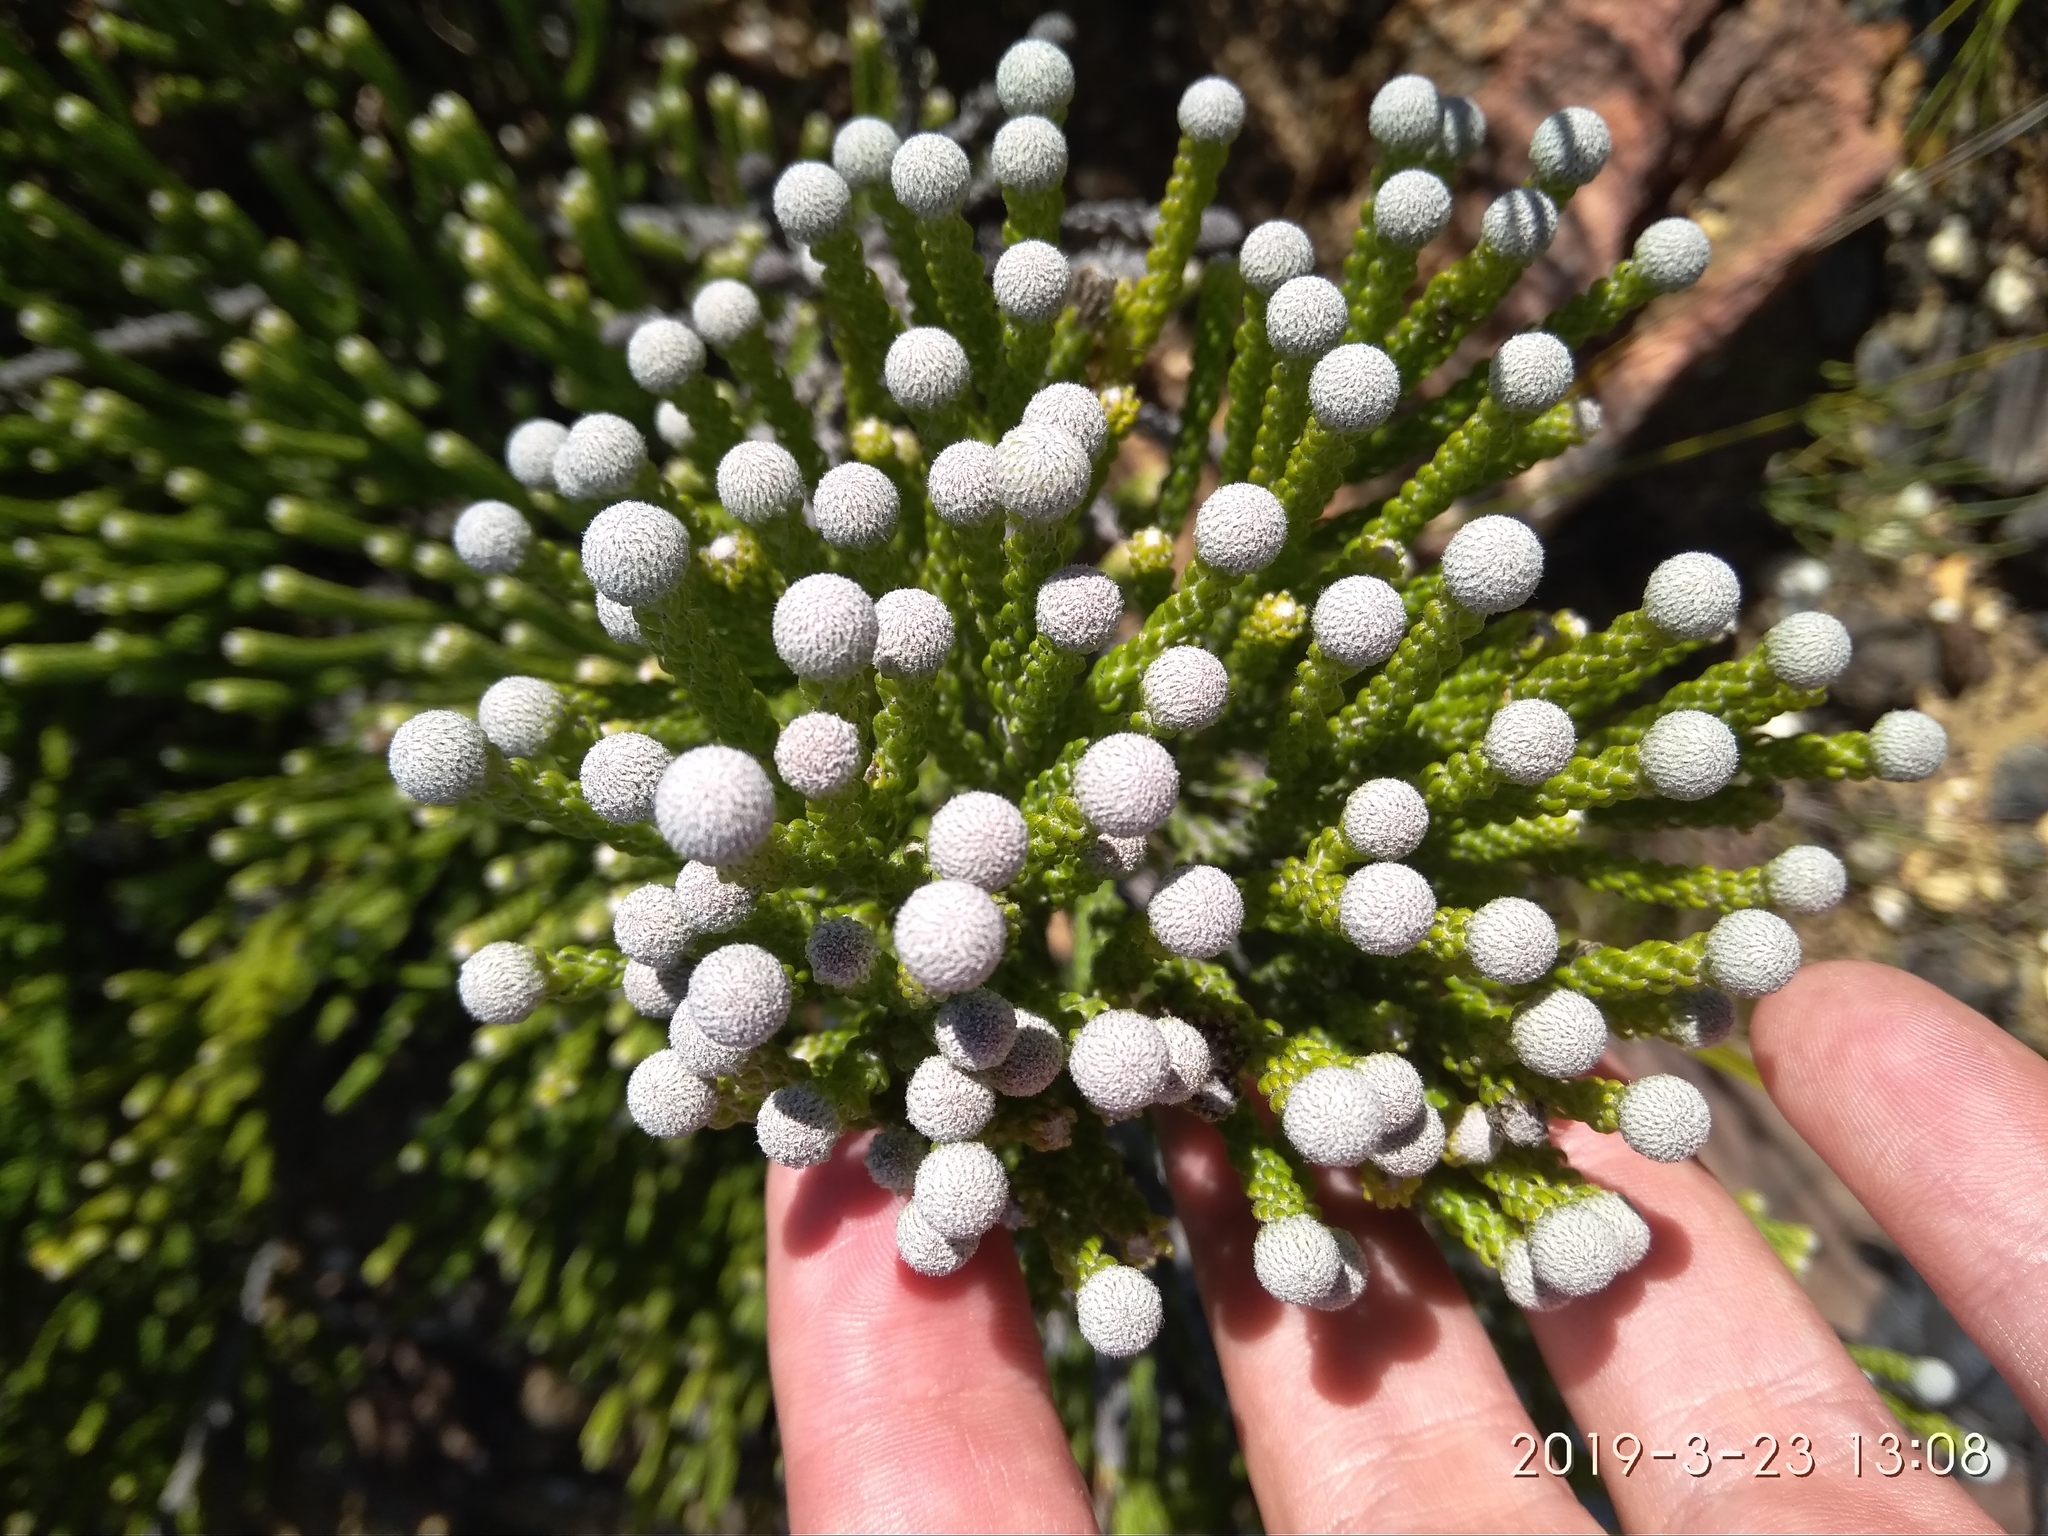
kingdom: Plantae
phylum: Tracheophyta
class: Magnoliopsida
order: Bruniales
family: Bruniaceae
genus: Brunia
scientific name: Brunia noduliflora
